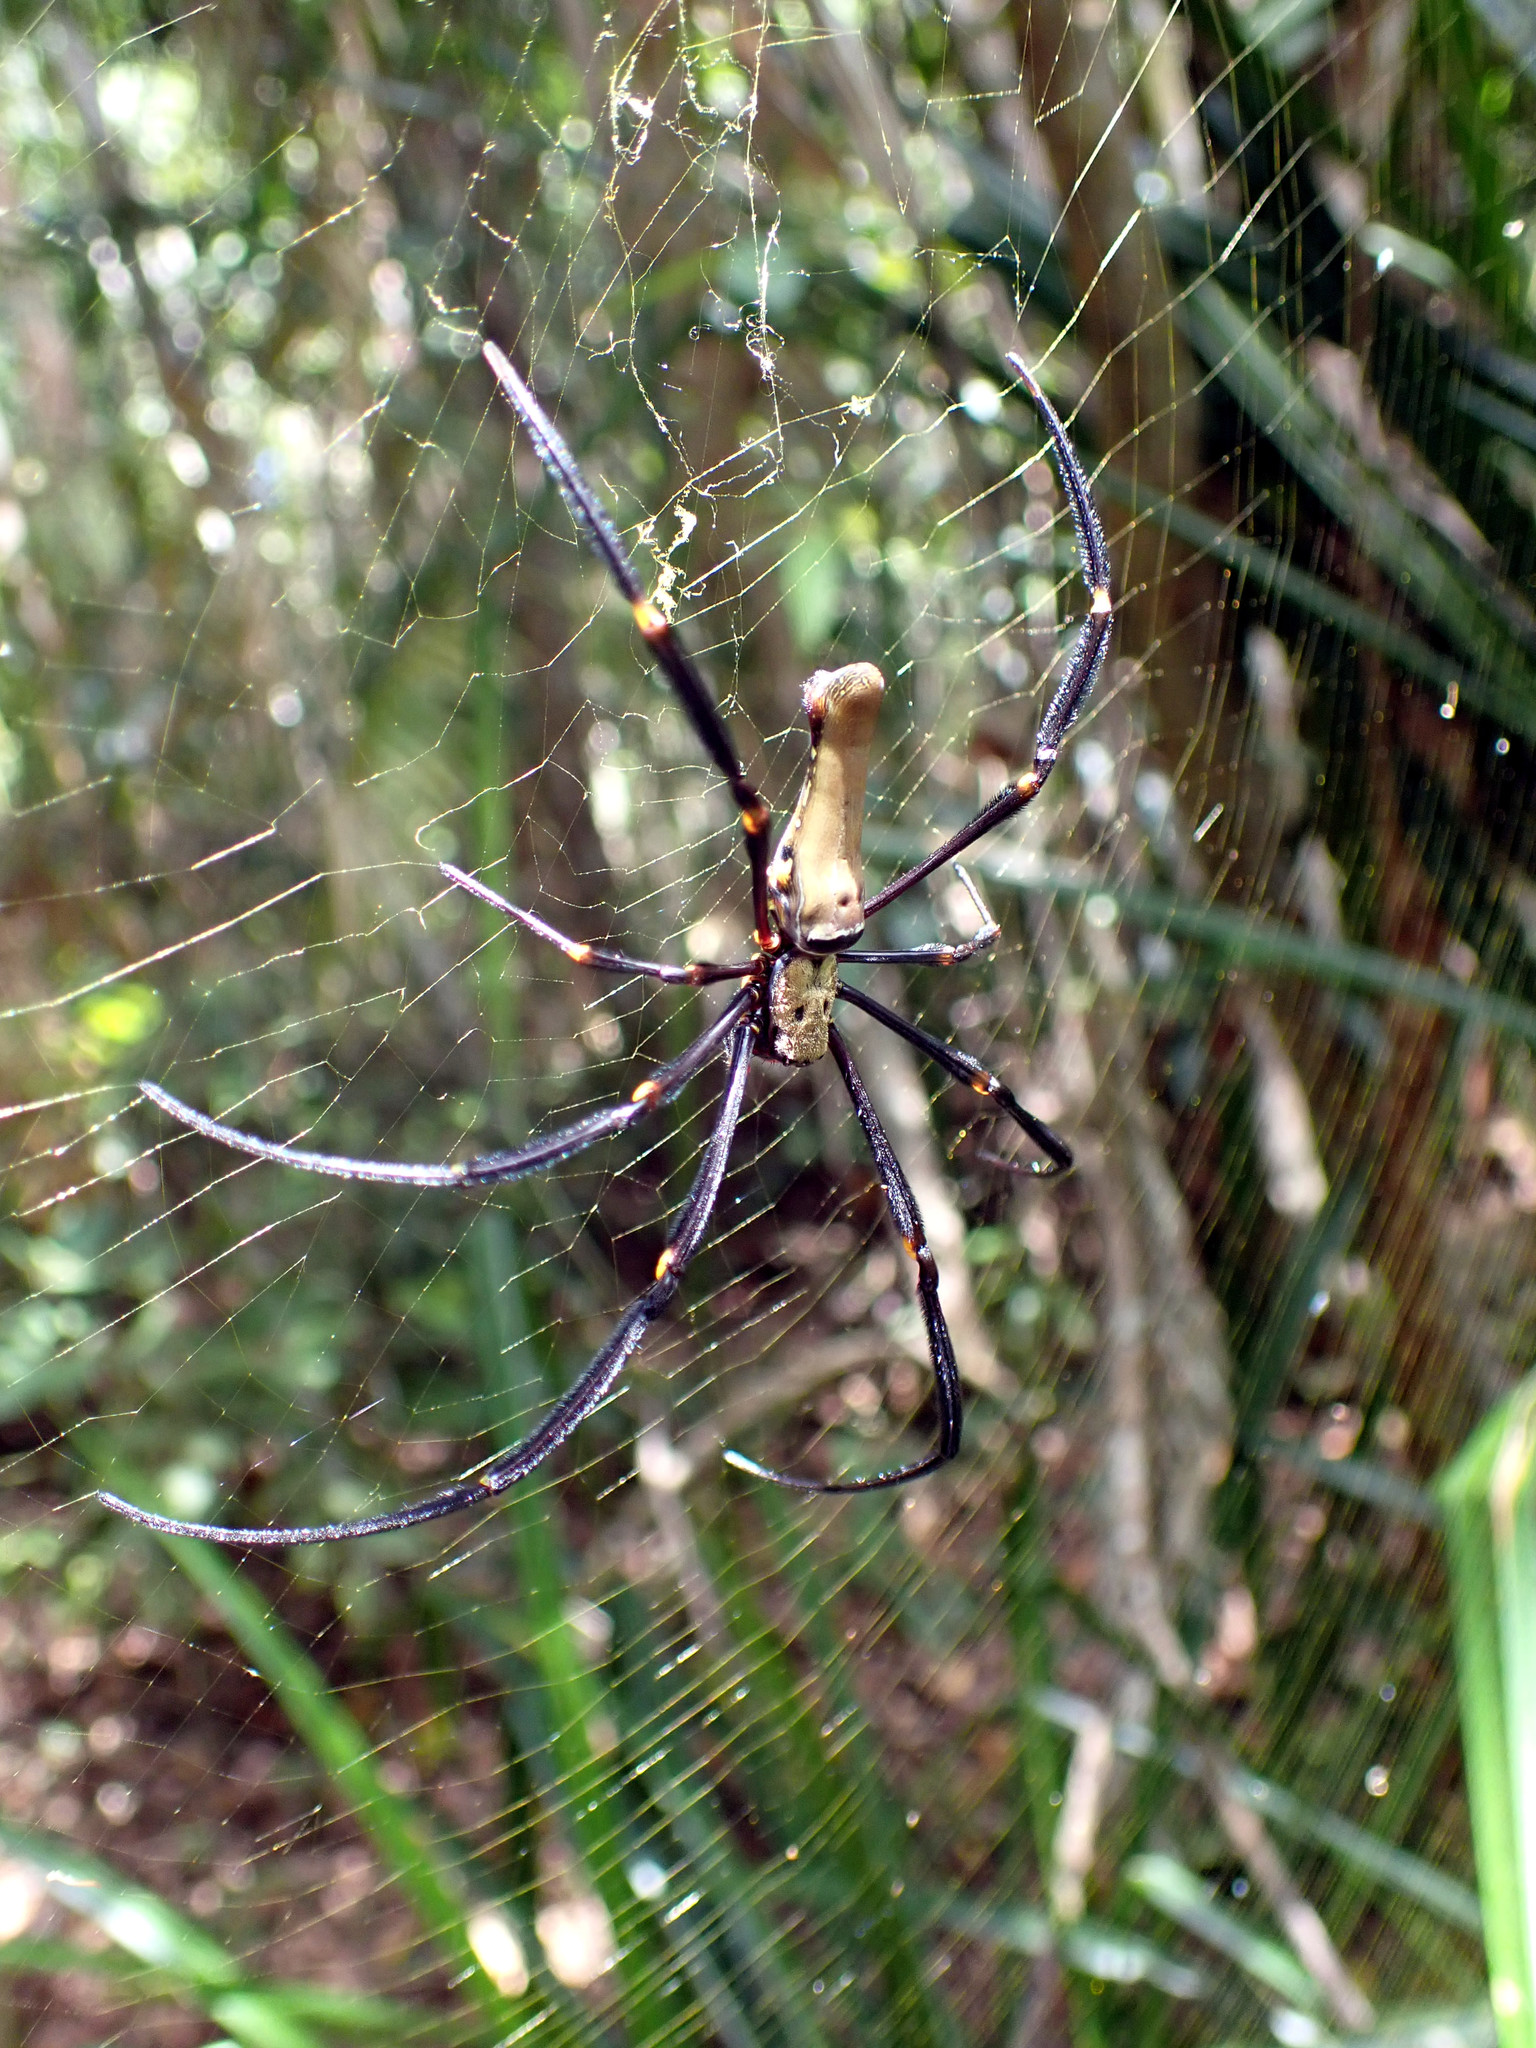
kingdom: Animalia
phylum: Arthropoda
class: Arachnida
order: Araneae
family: Araneidae
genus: Nephila
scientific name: Nephila pilipes
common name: Giant golden orb weaver
